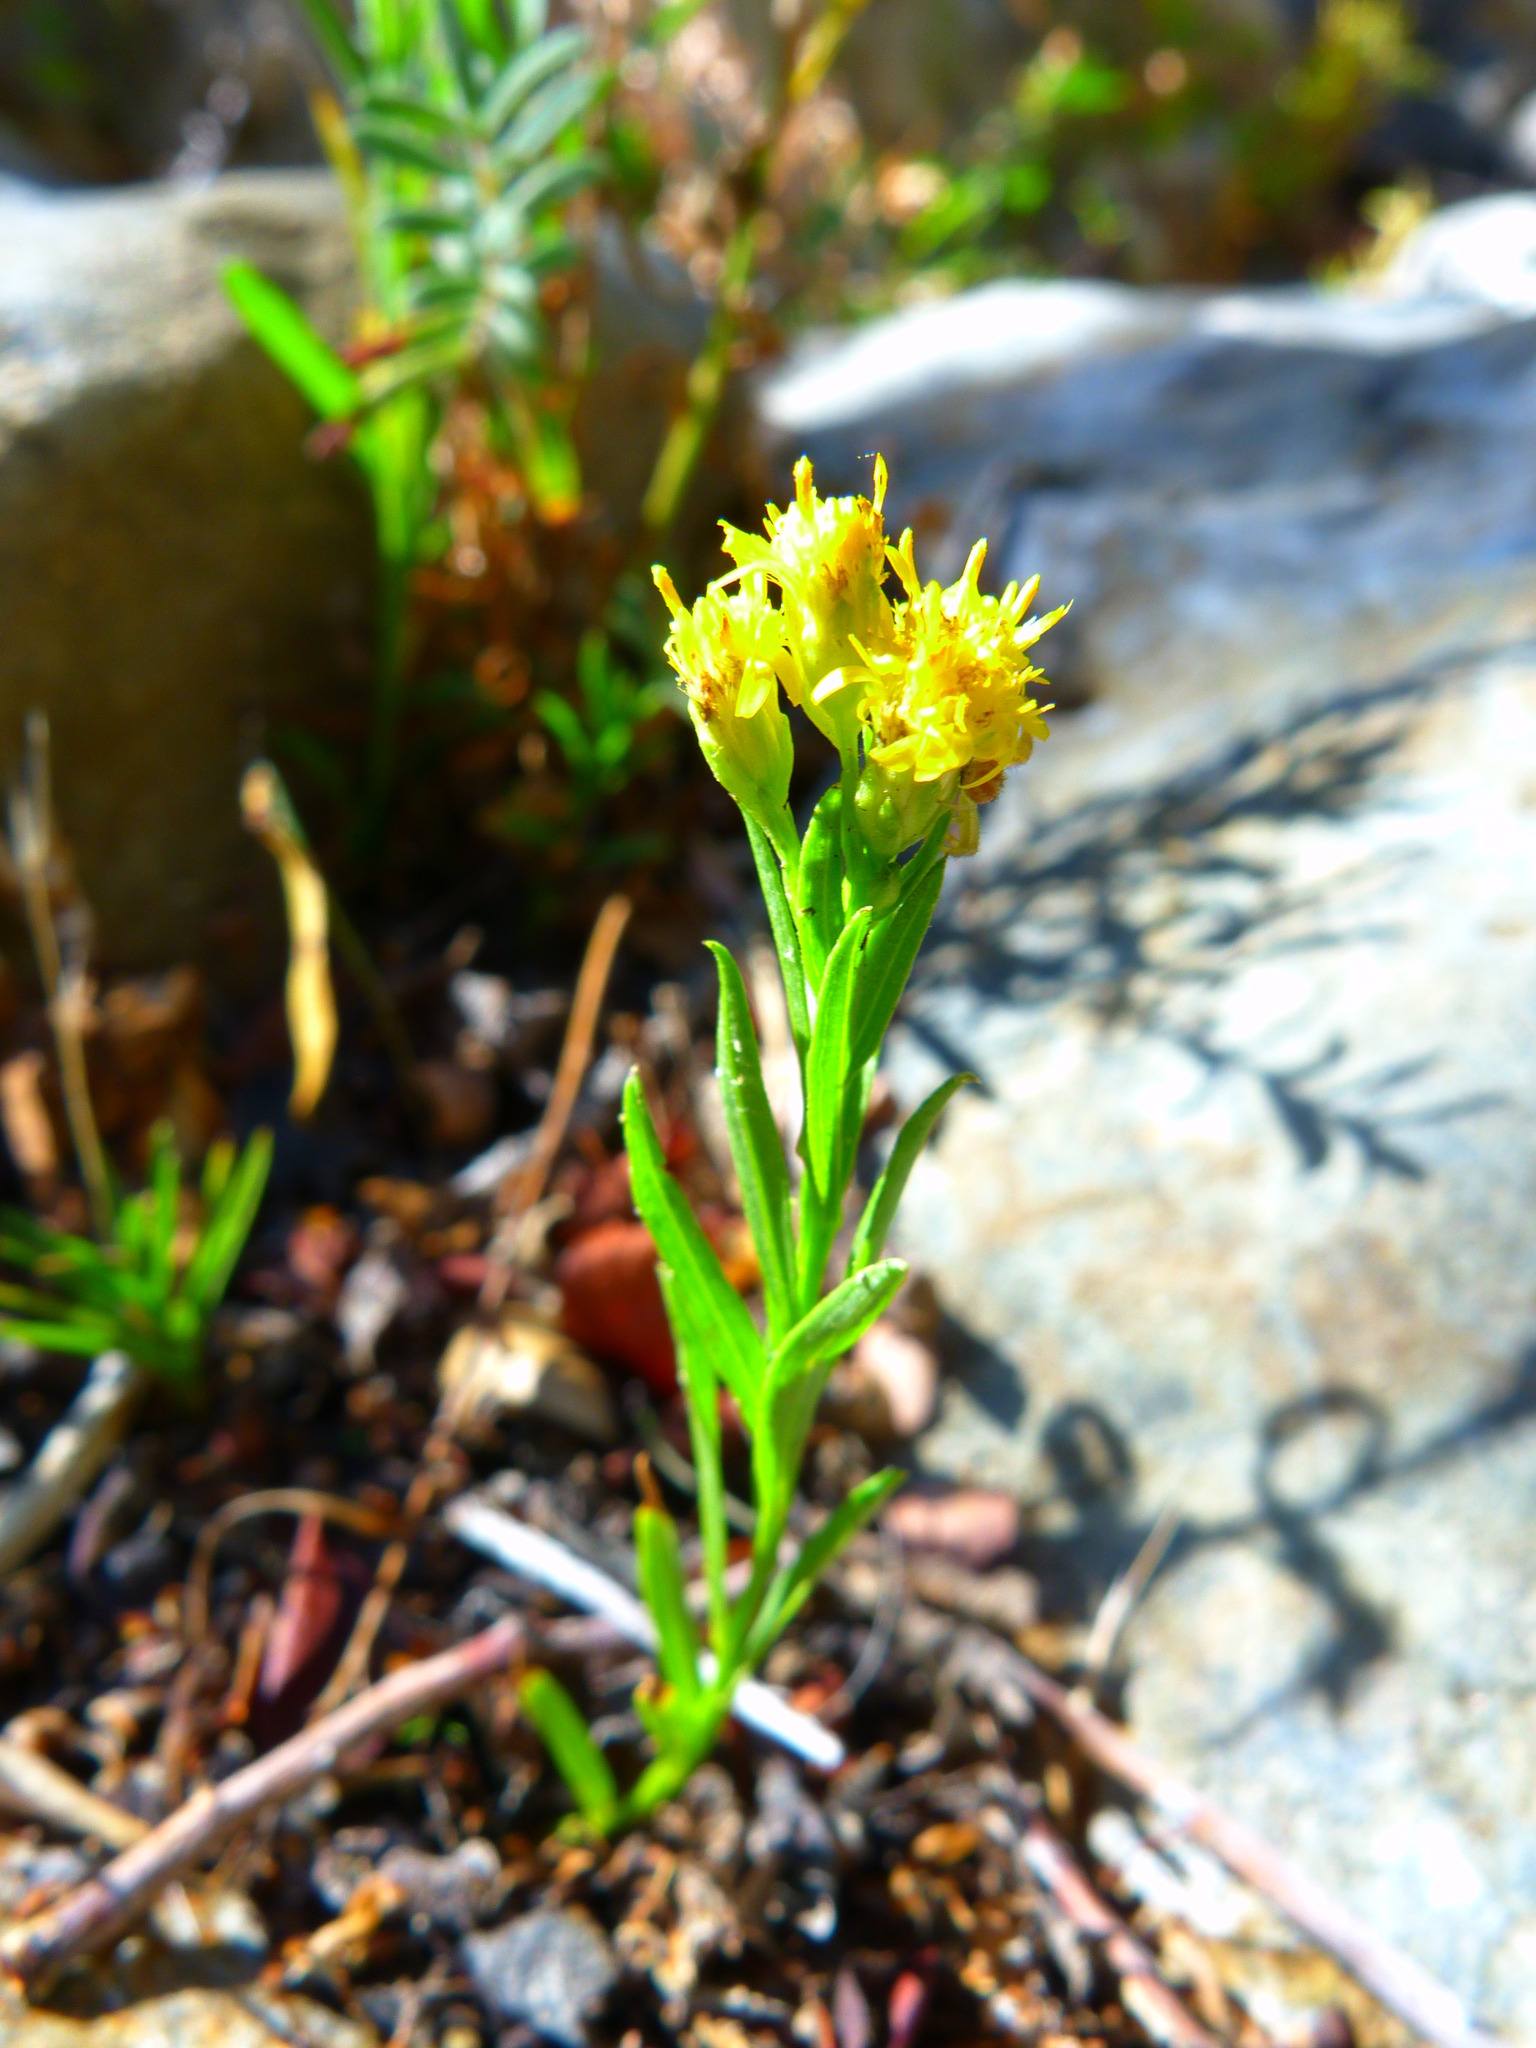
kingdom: Plantae
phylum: Tracheophyta
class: Magnoliopsida
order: Asterales
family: Asteraceae
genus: Euthamia
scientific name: Euthamia occidentalis
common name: Western goldentop
